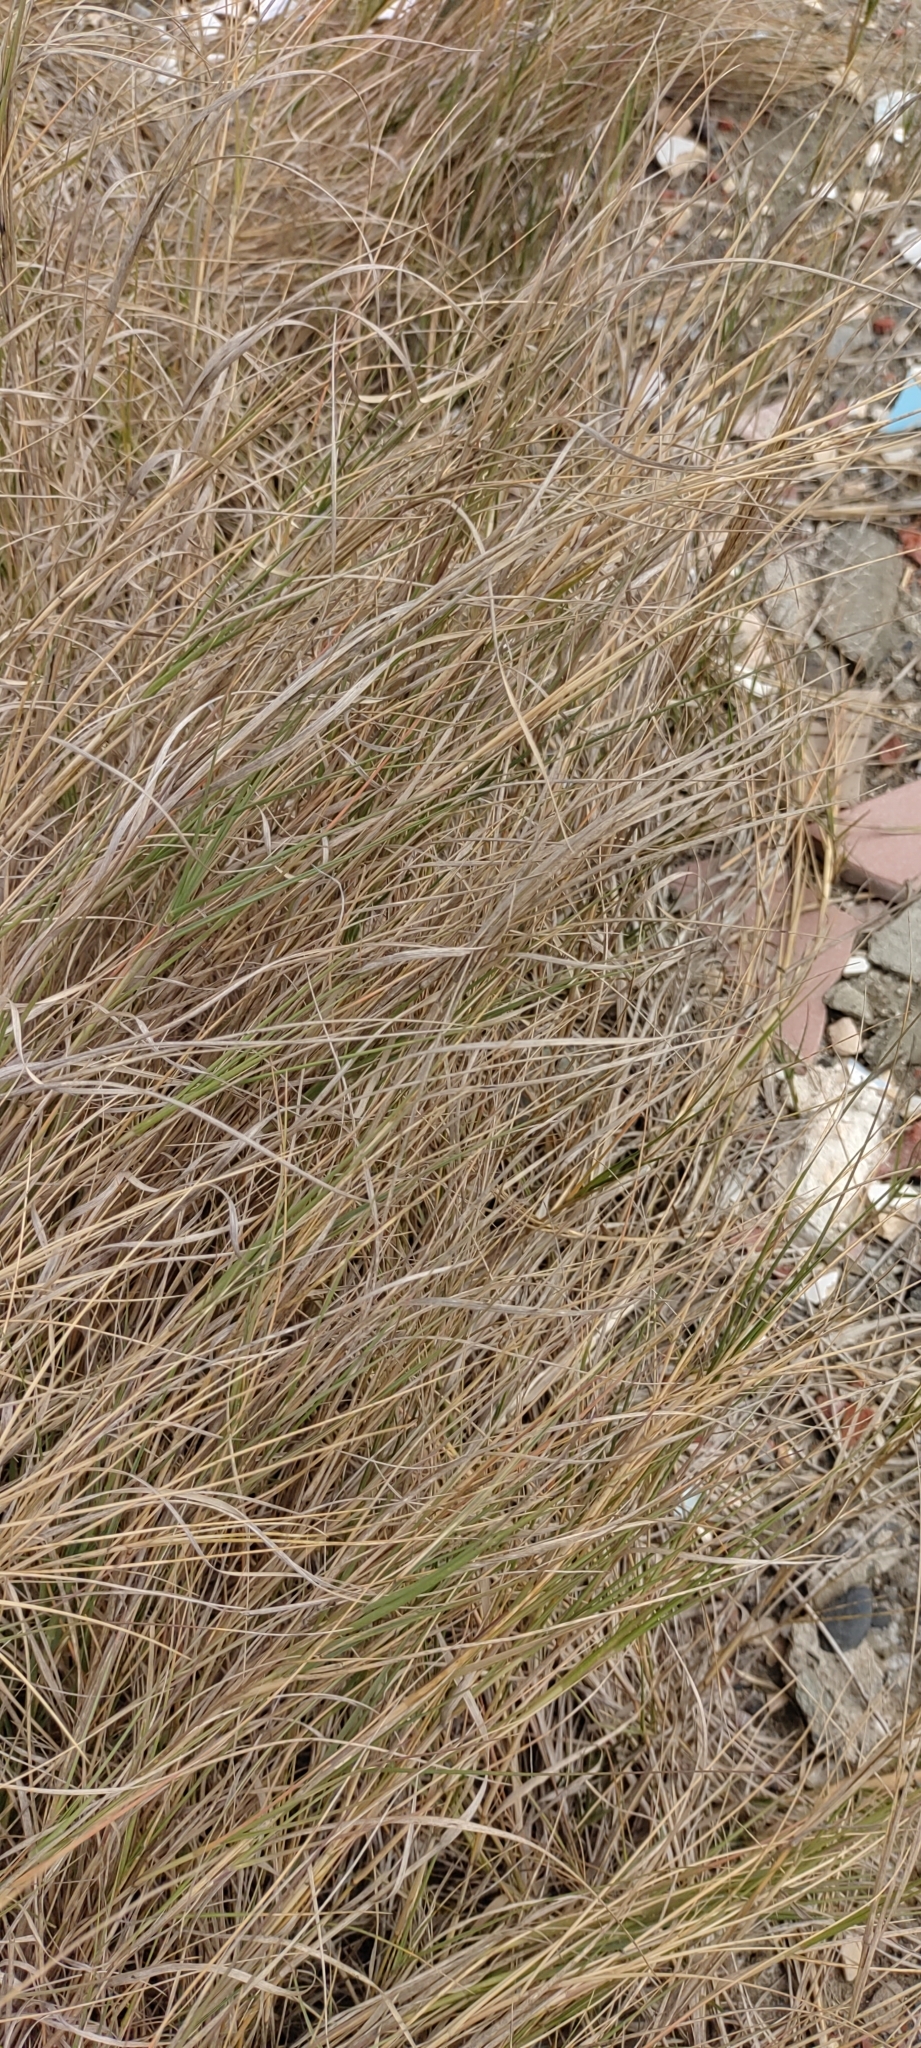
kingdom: Plantae
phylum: Tracheophyta
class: Liliopsida
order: Poales
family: Poaceae
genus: Sporobolus
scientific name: Sporobolus virginicus
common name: Beach dropseed
